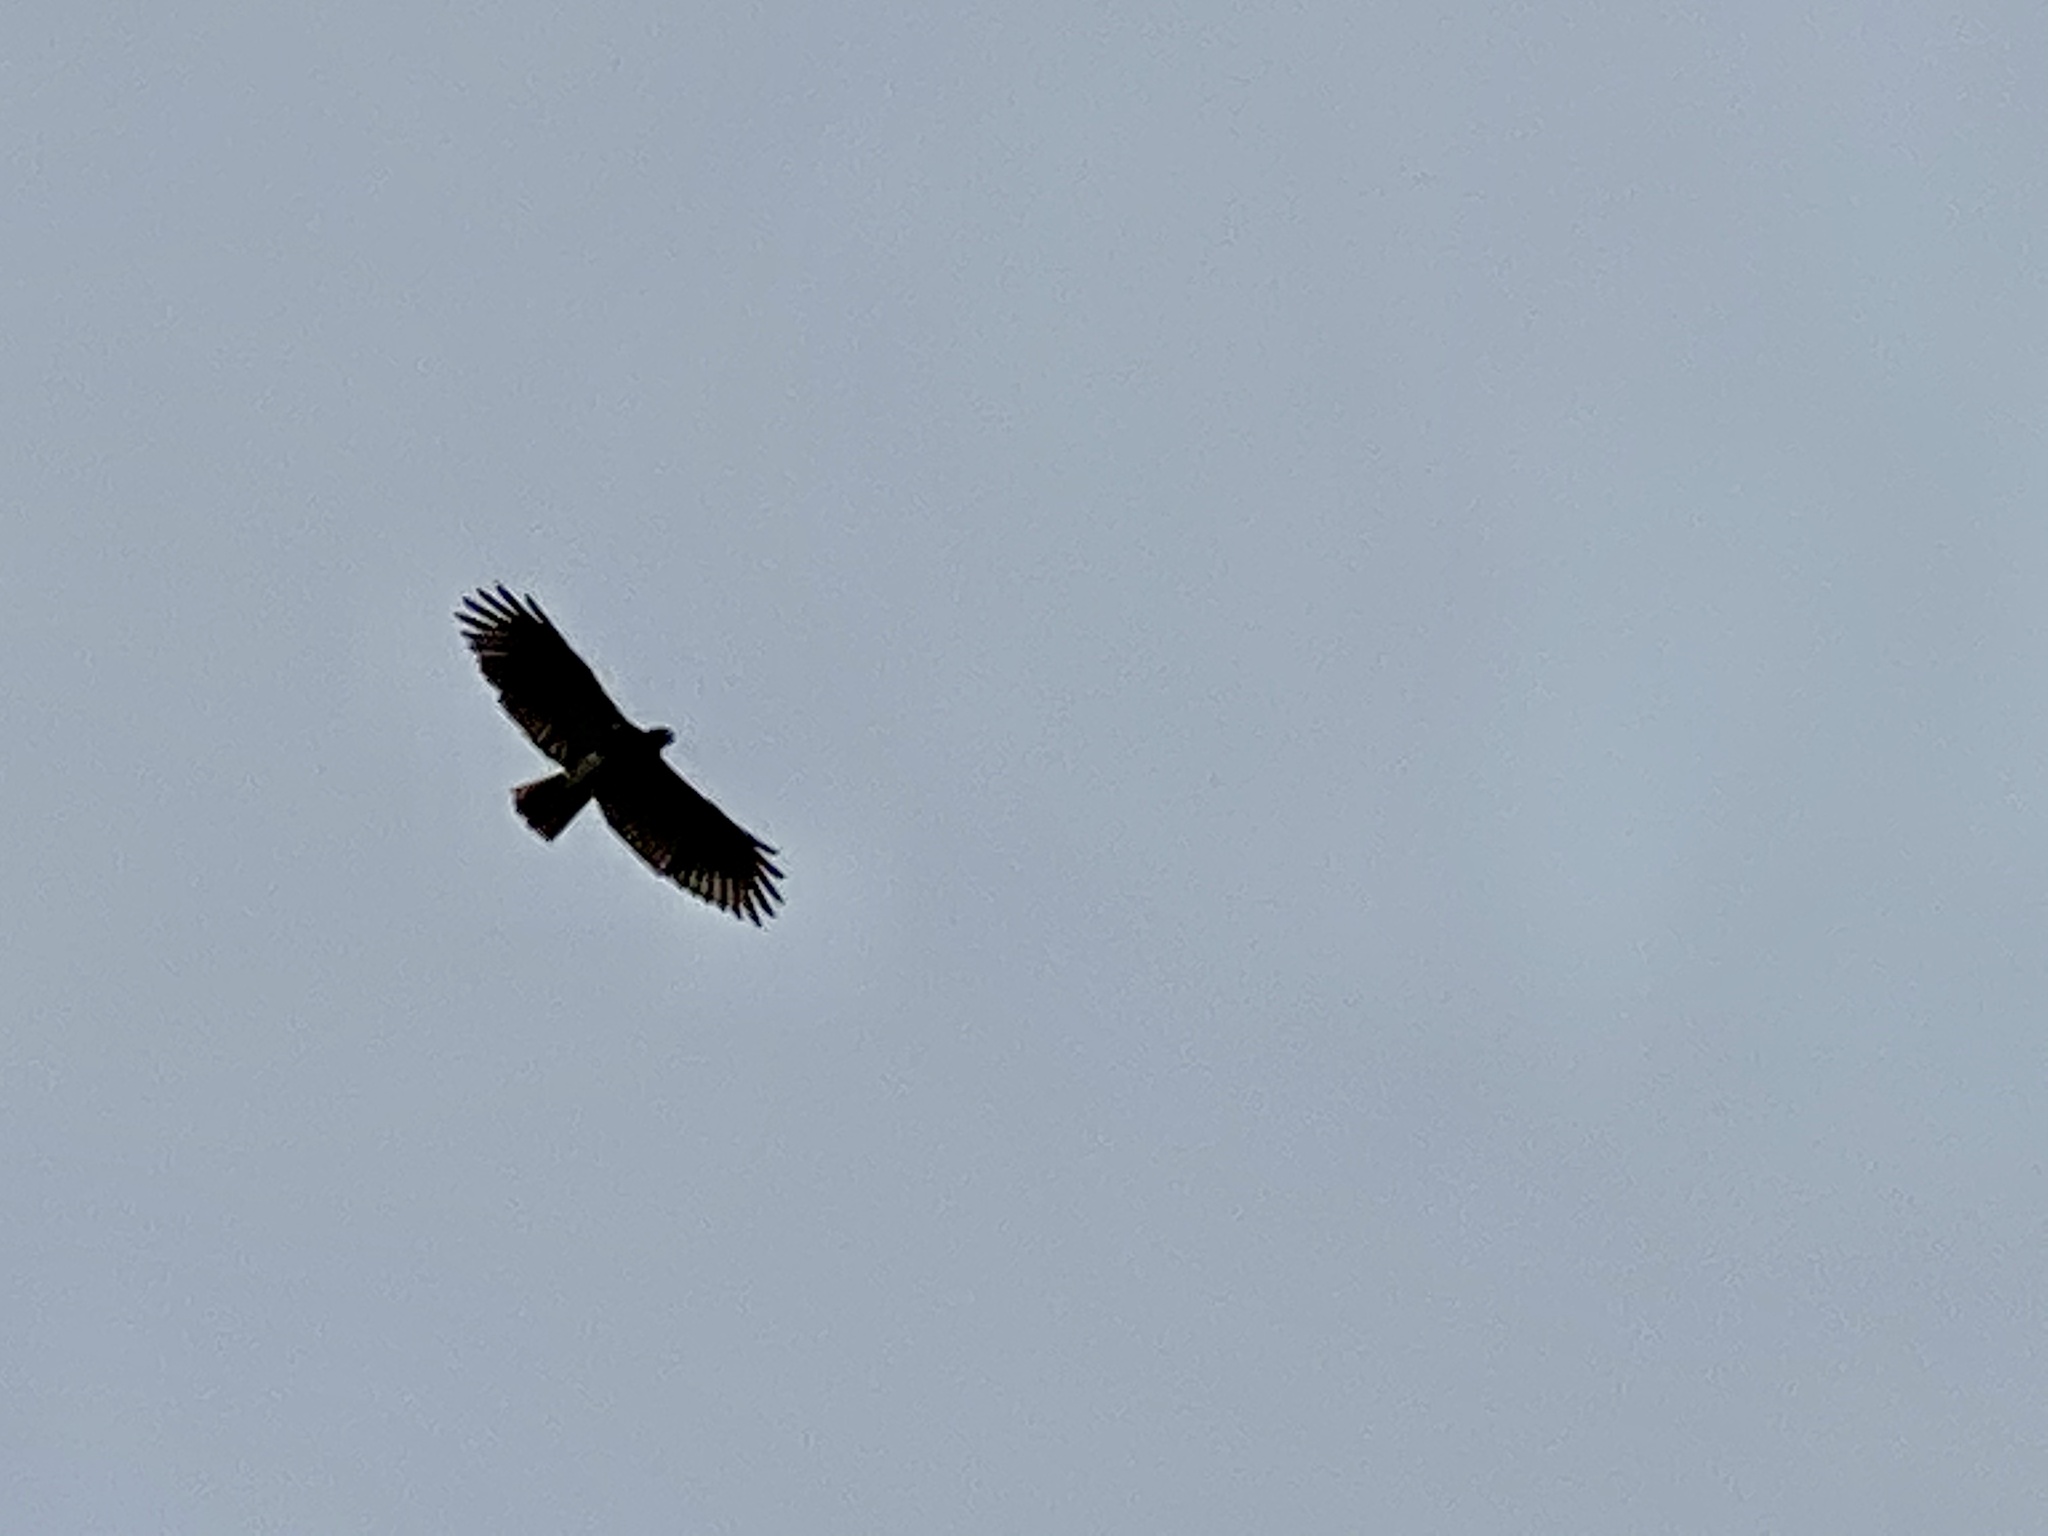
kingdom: Animalia
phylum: Chordata
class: Aves
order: Accipitriformes
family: Accipitridae
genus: Buteo
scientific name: Buteo jamaicensis
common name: Red-tailed hawk
